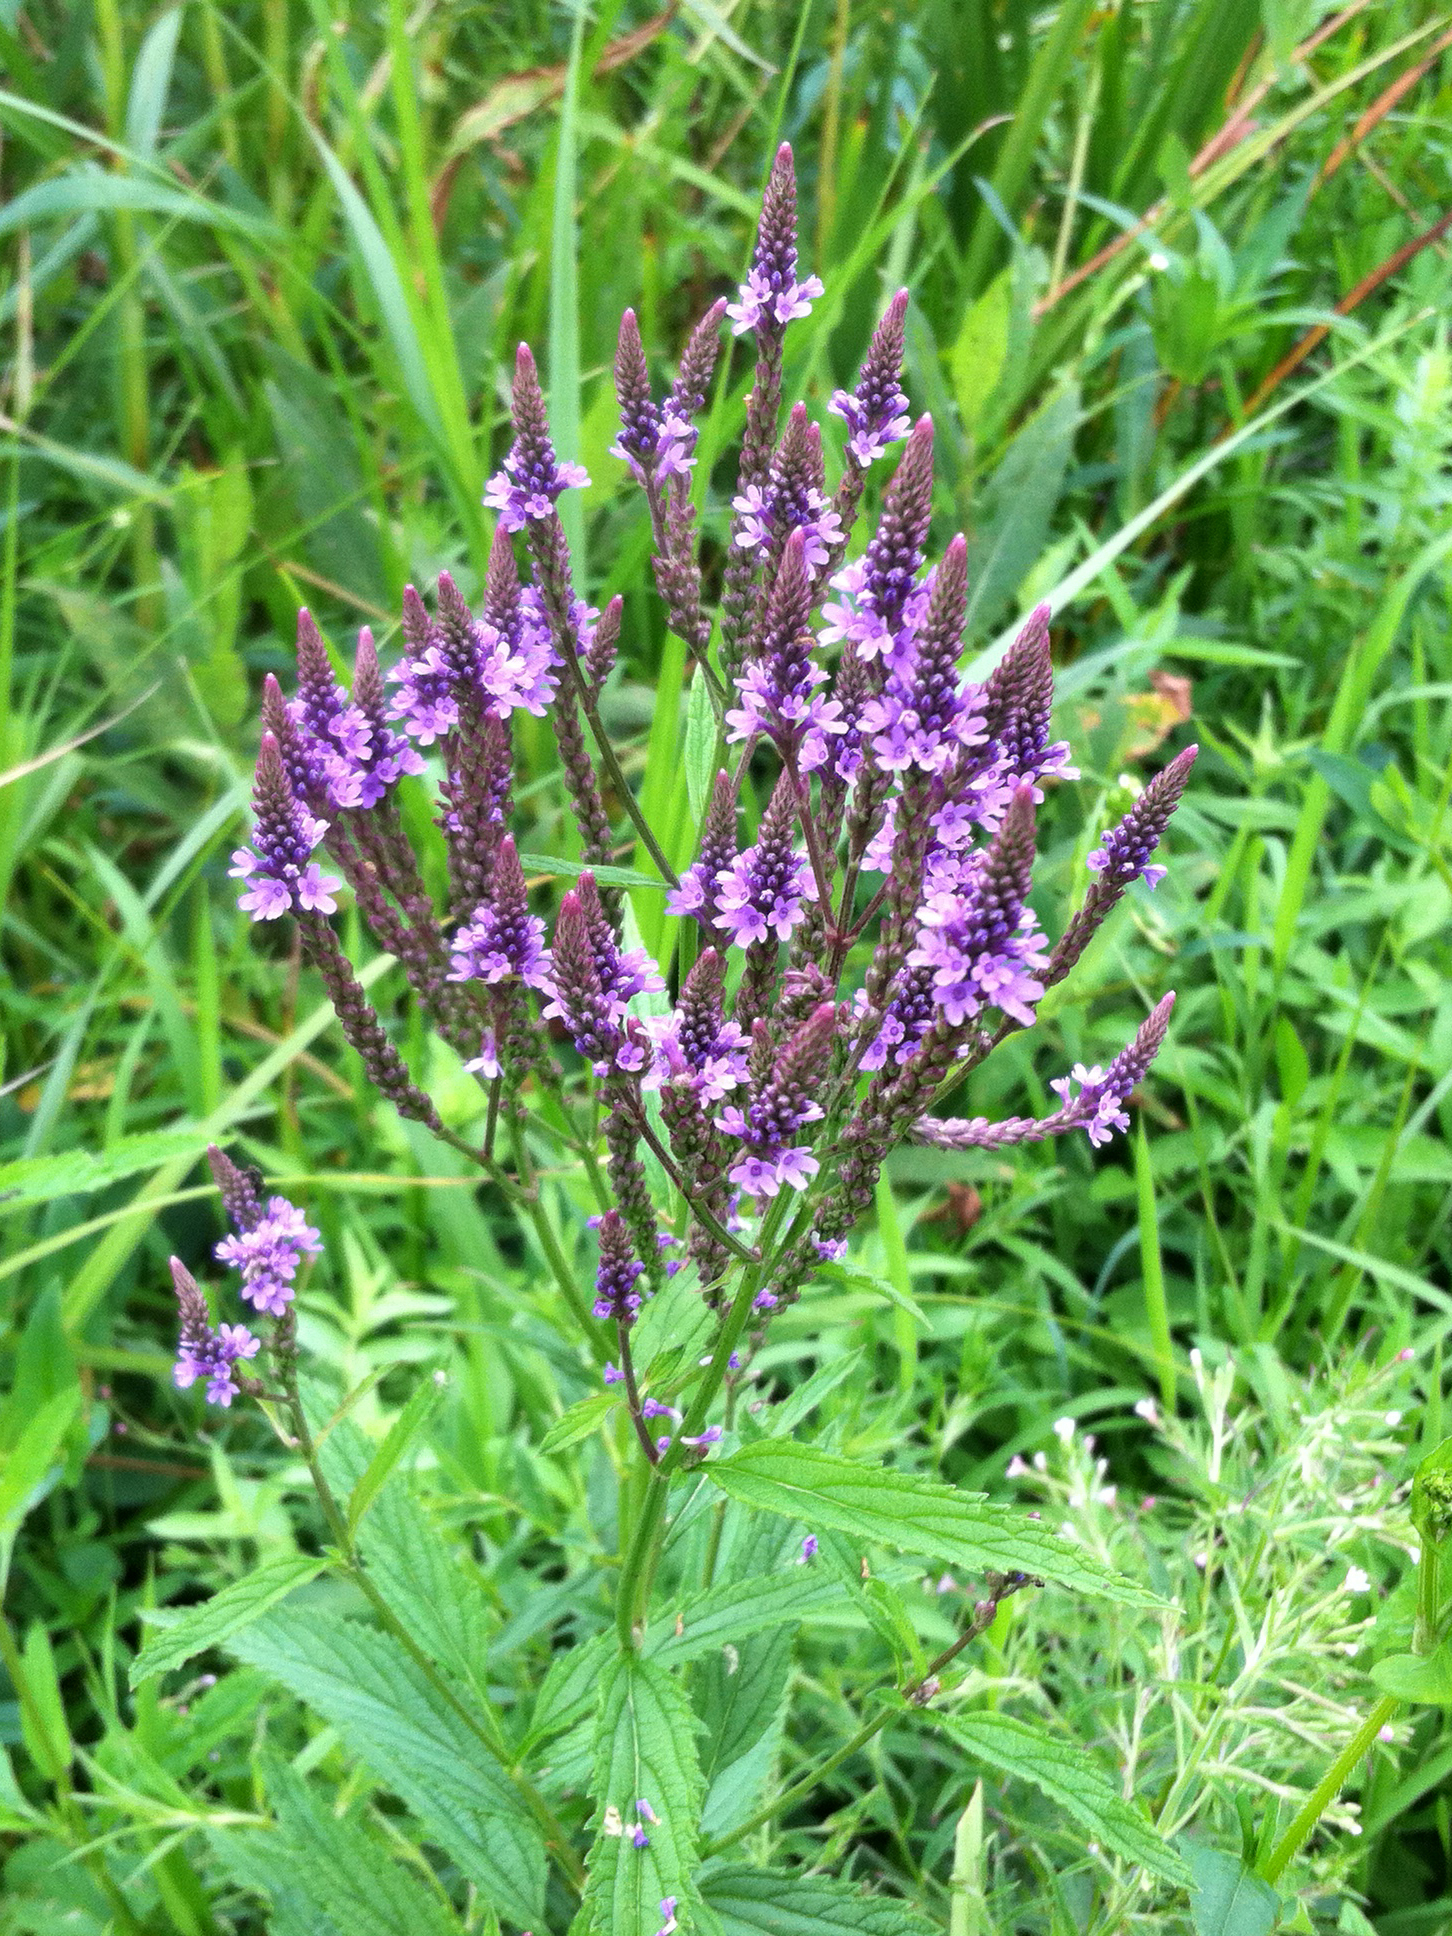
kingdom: Plantae
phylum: Tracheophyta
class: Magnoliopsida
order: Lamiales
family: Verbenaceae
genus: Verbena
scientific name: Verbena hastata
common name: American blue vervain
